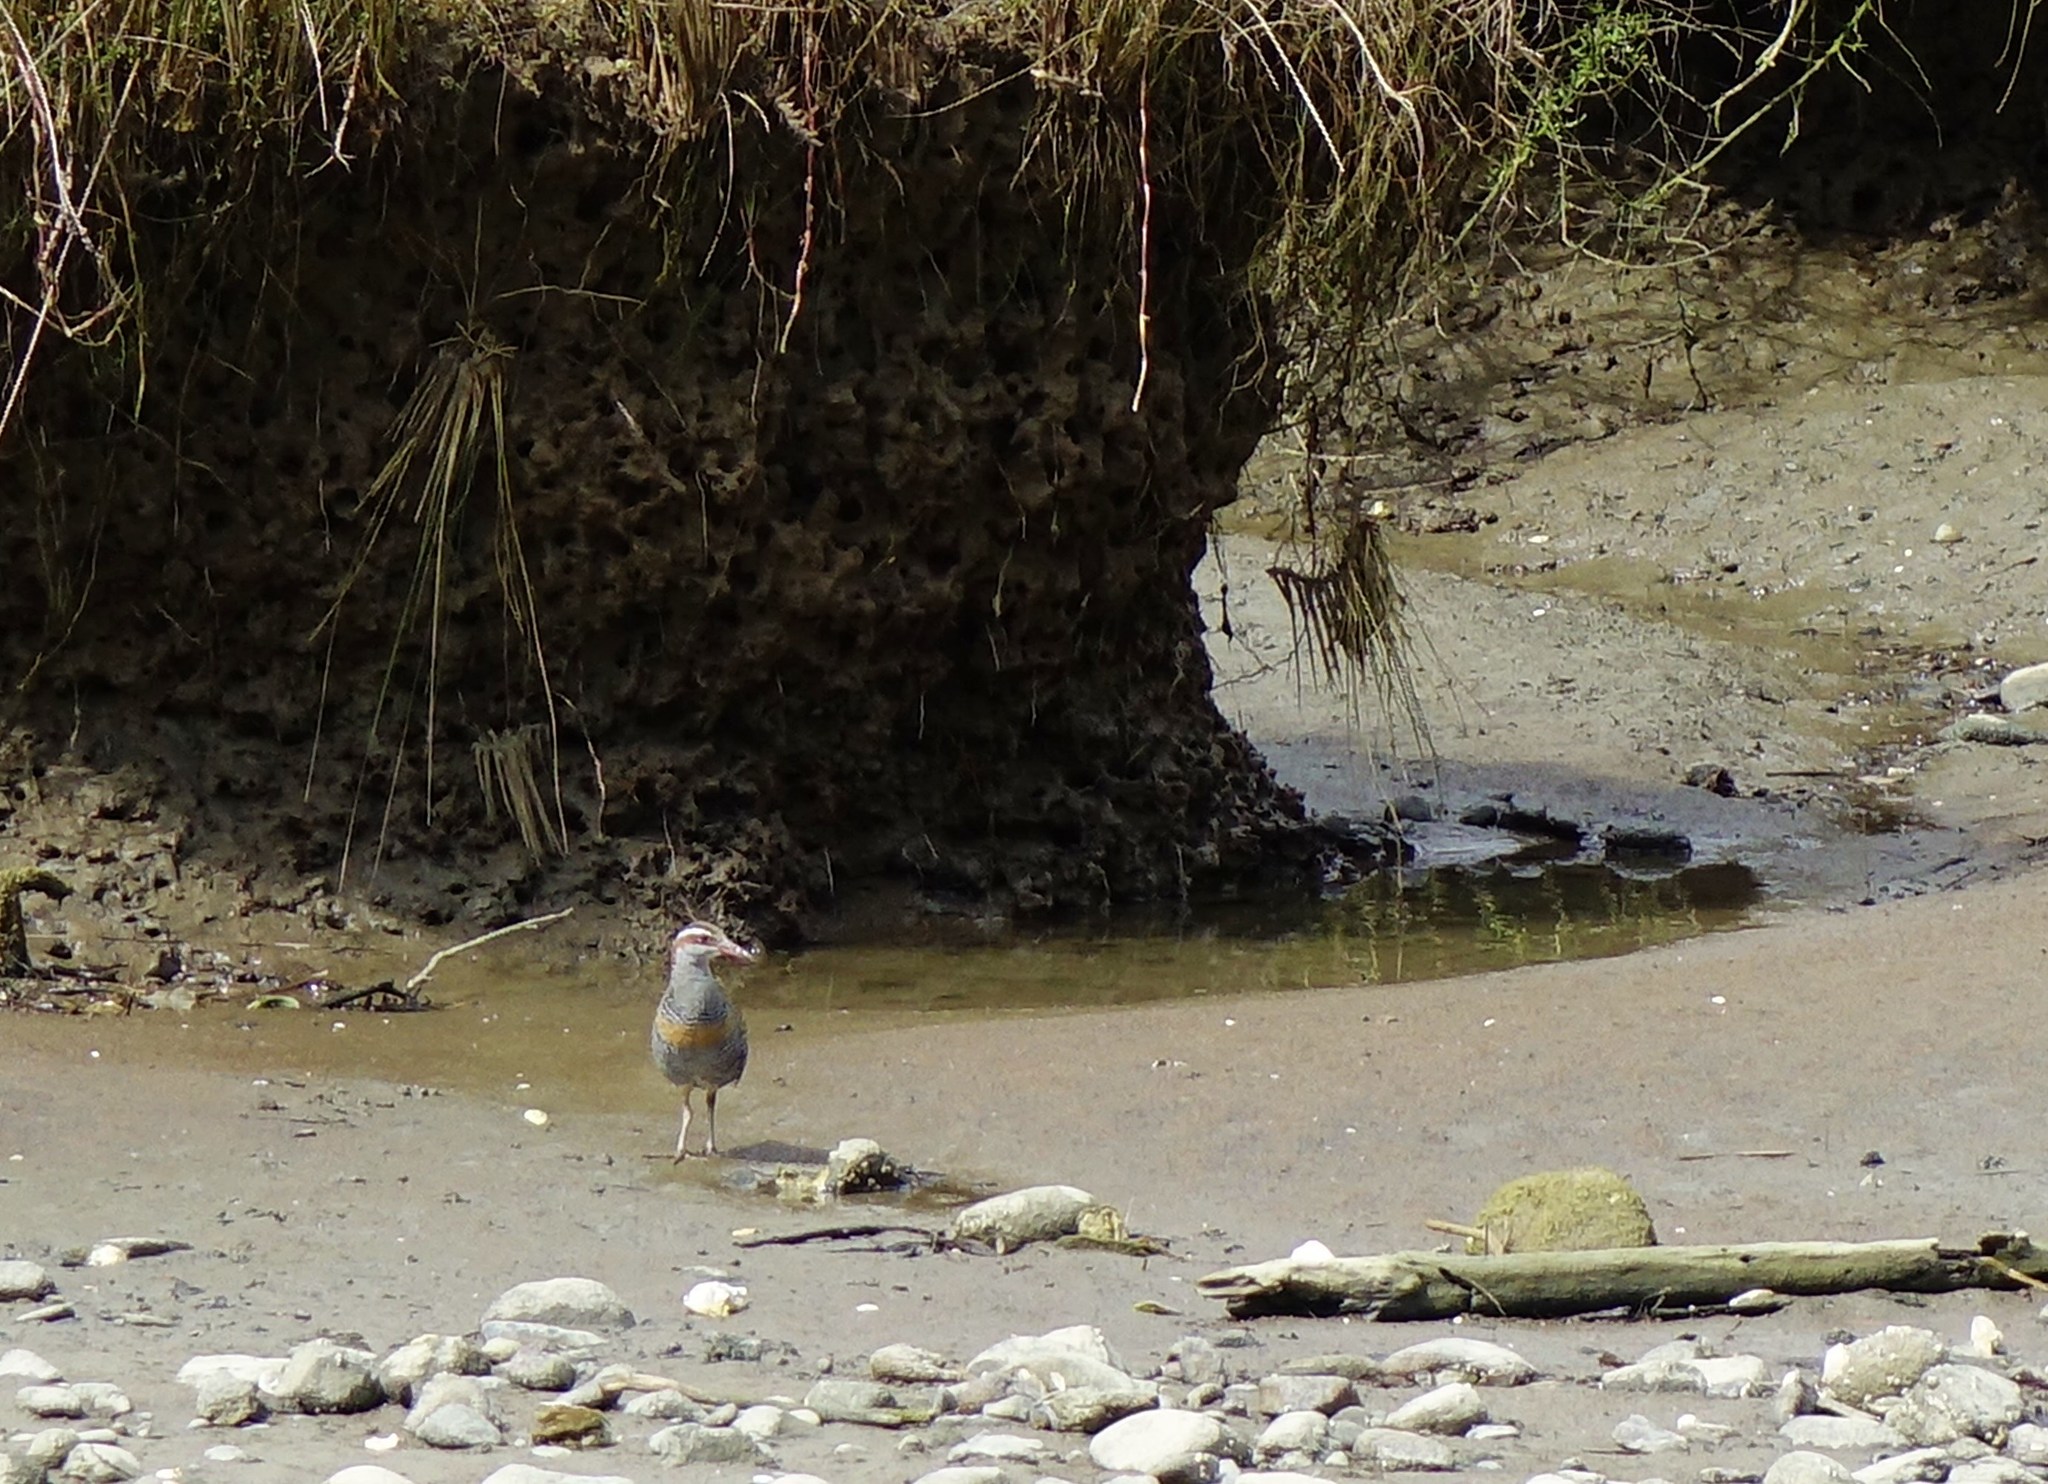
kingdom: Animalia
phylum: Chordata
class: Aves
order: Gruiformes
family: Rallidae
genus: Gallirallus
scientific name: Gallirallus philippensis
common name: Buff-banded rail
